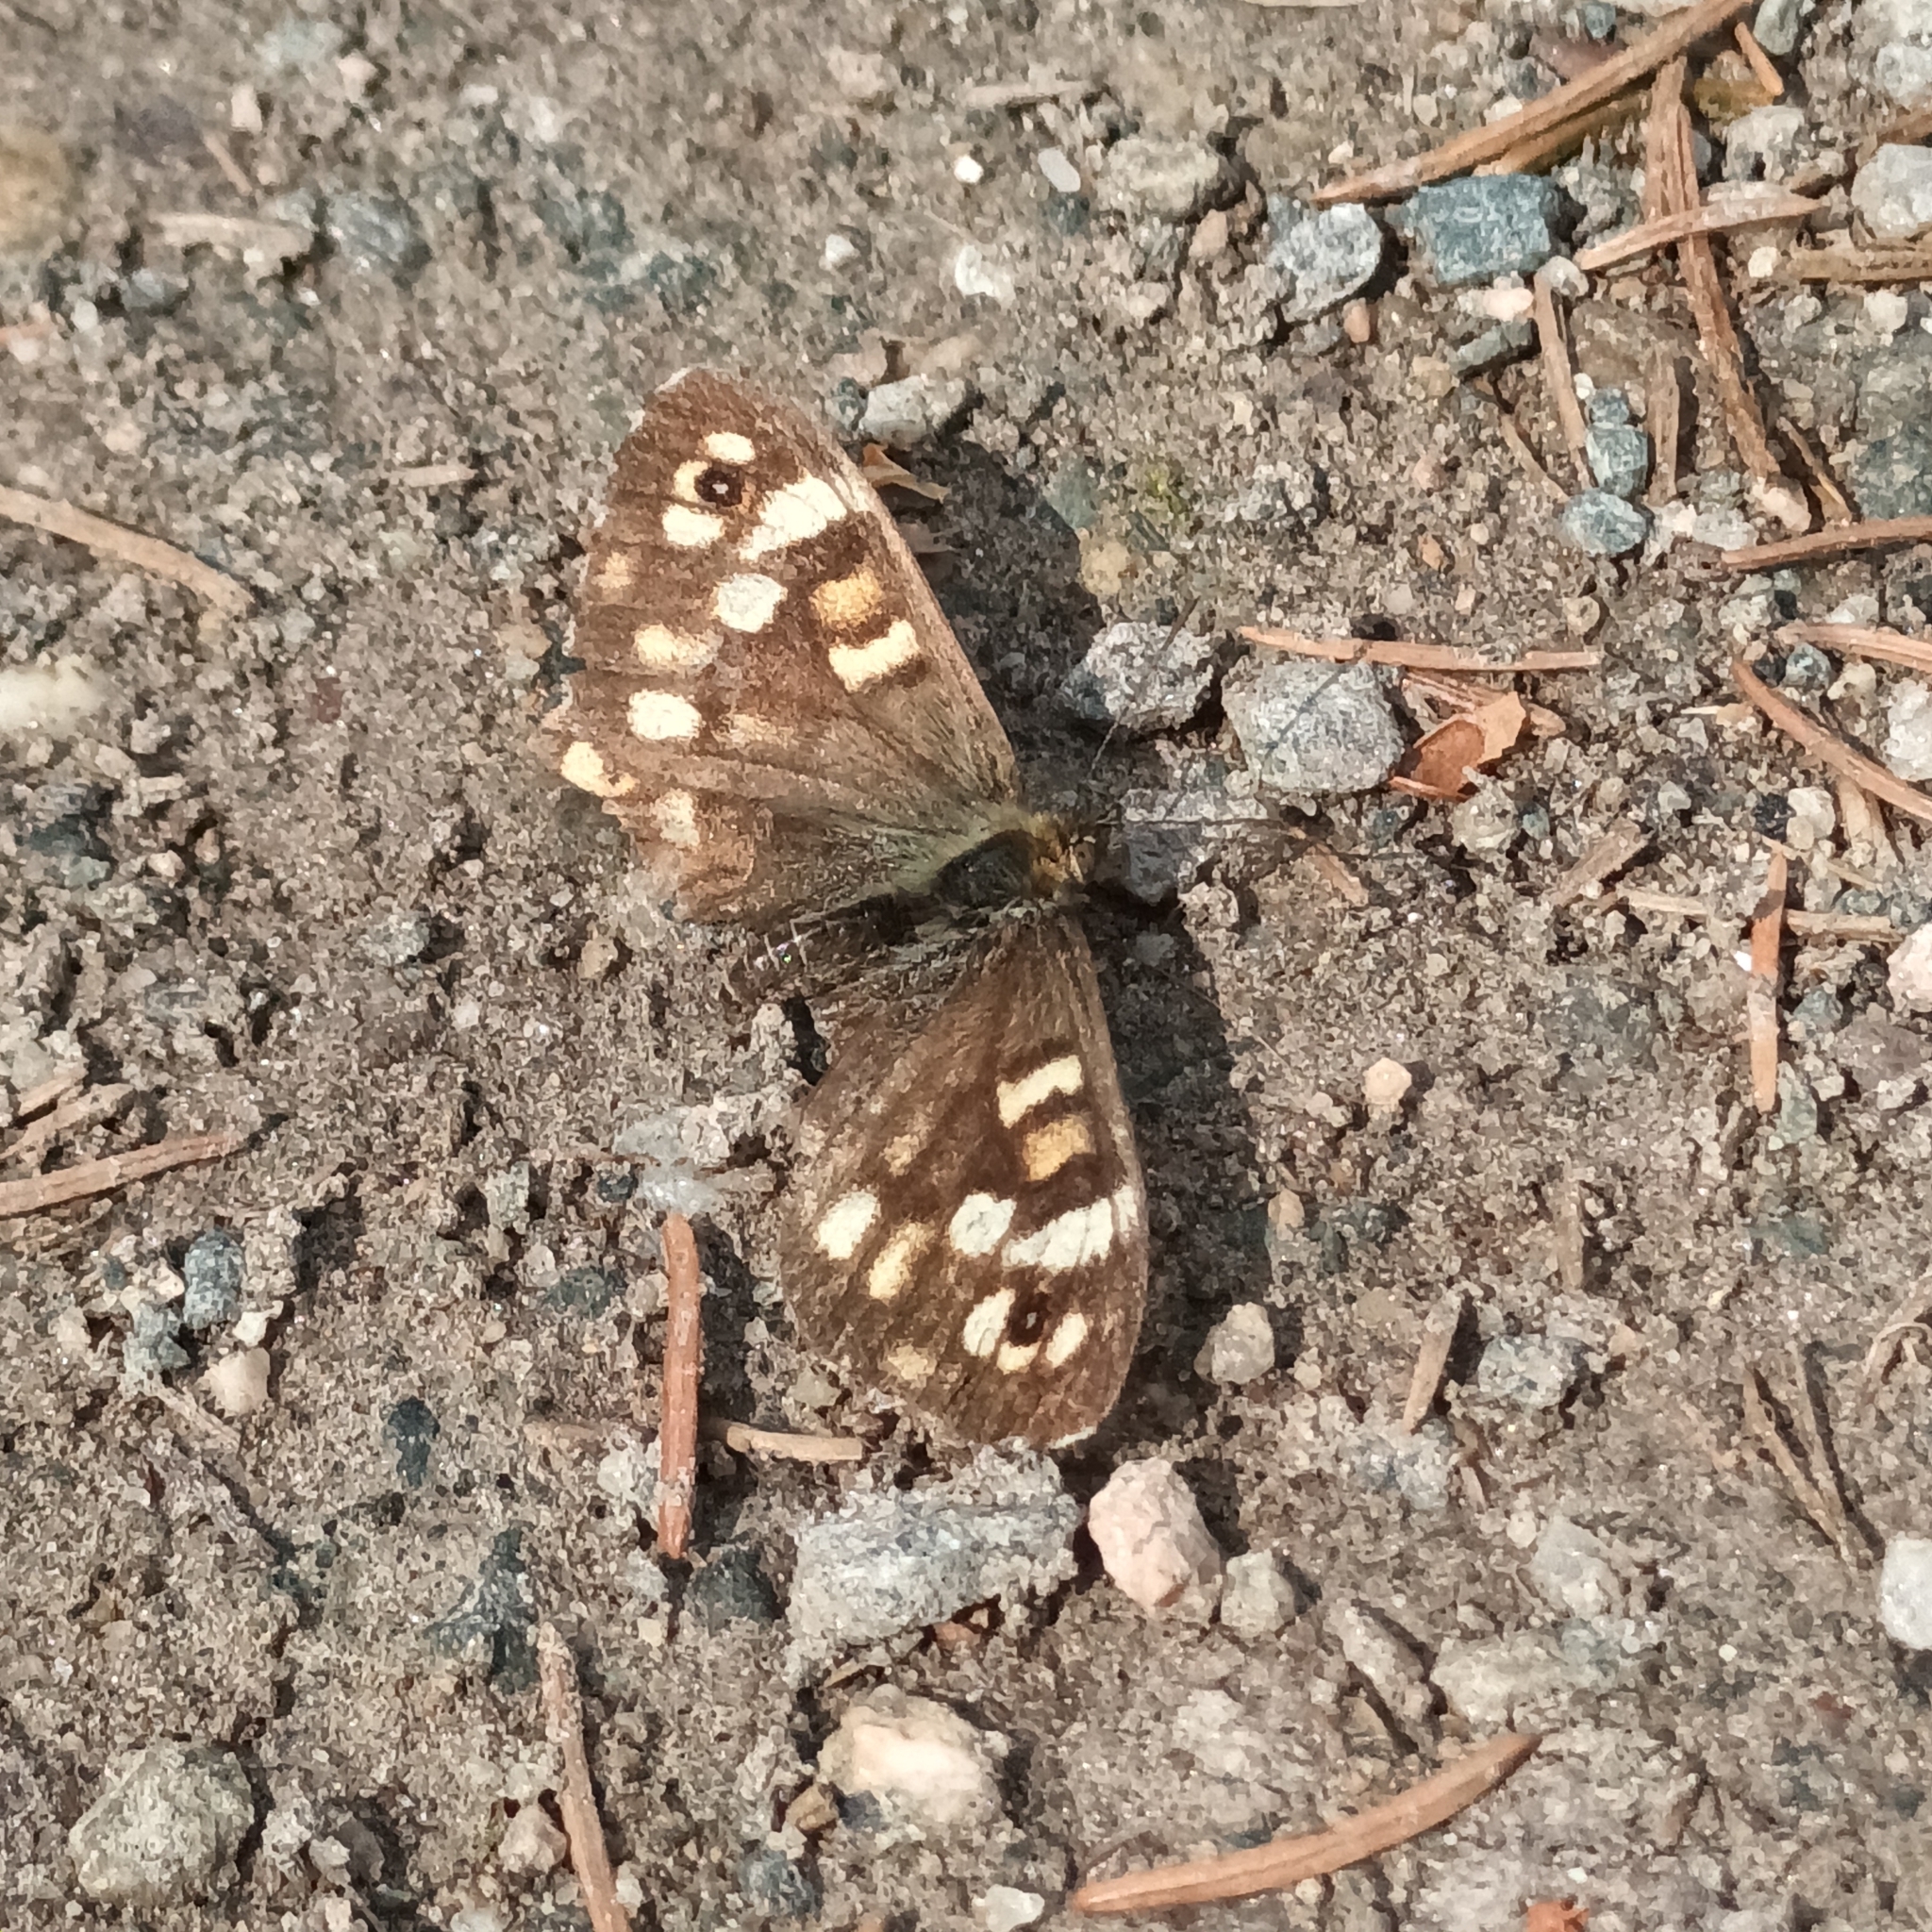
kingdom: Animalia
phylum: Arthropoda
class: Insecta
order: Lepidoptera
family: Nymphalidae
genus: Pararge
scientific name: Pararge aegeria
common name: Speckled wood
